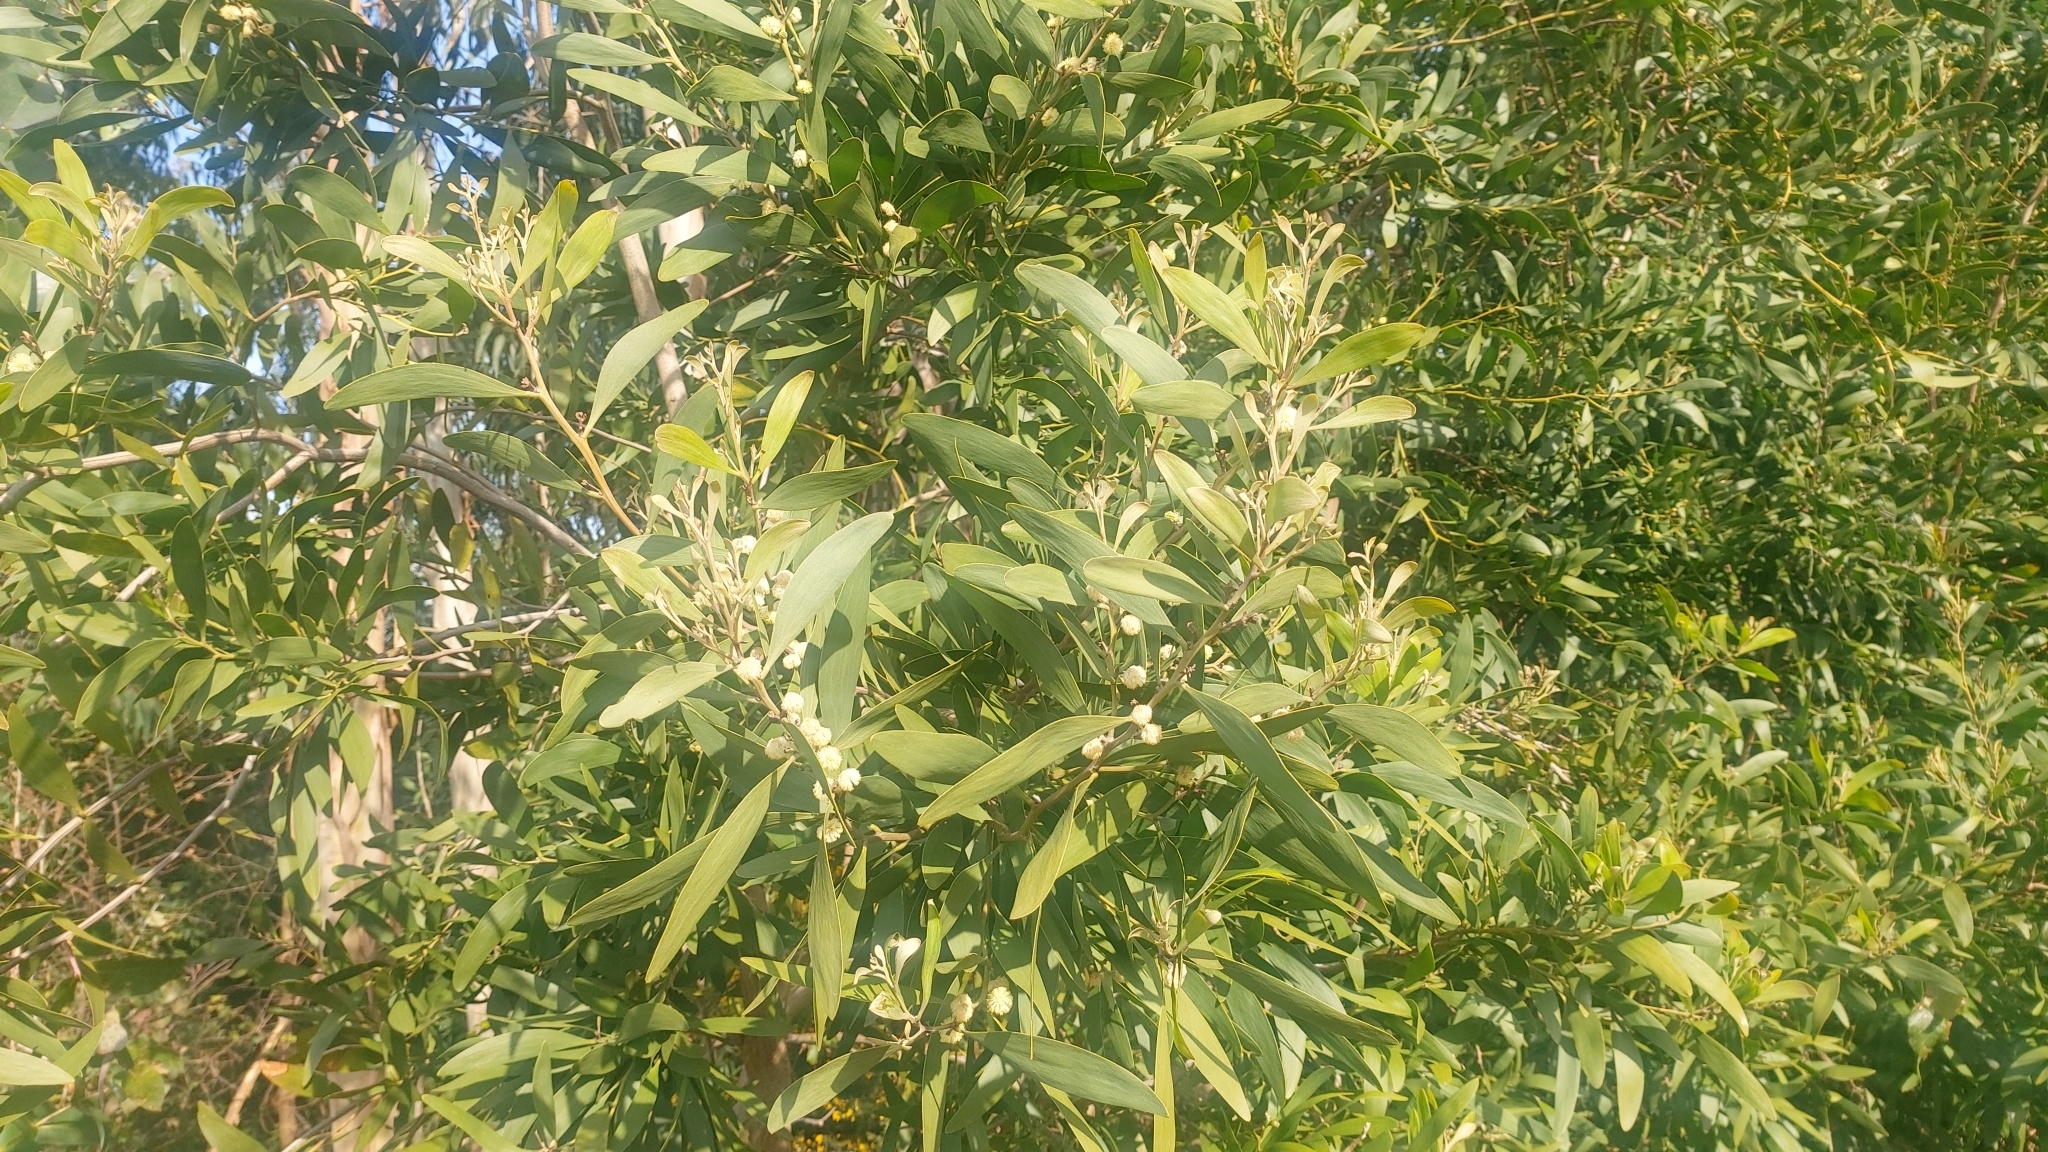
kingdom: Plantae
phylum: Tracheophyta
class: Magnoliopsida
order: Fabales
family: Fabaceae
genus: Acacia
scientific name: Acacia melanoxylon
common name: Blackwood
